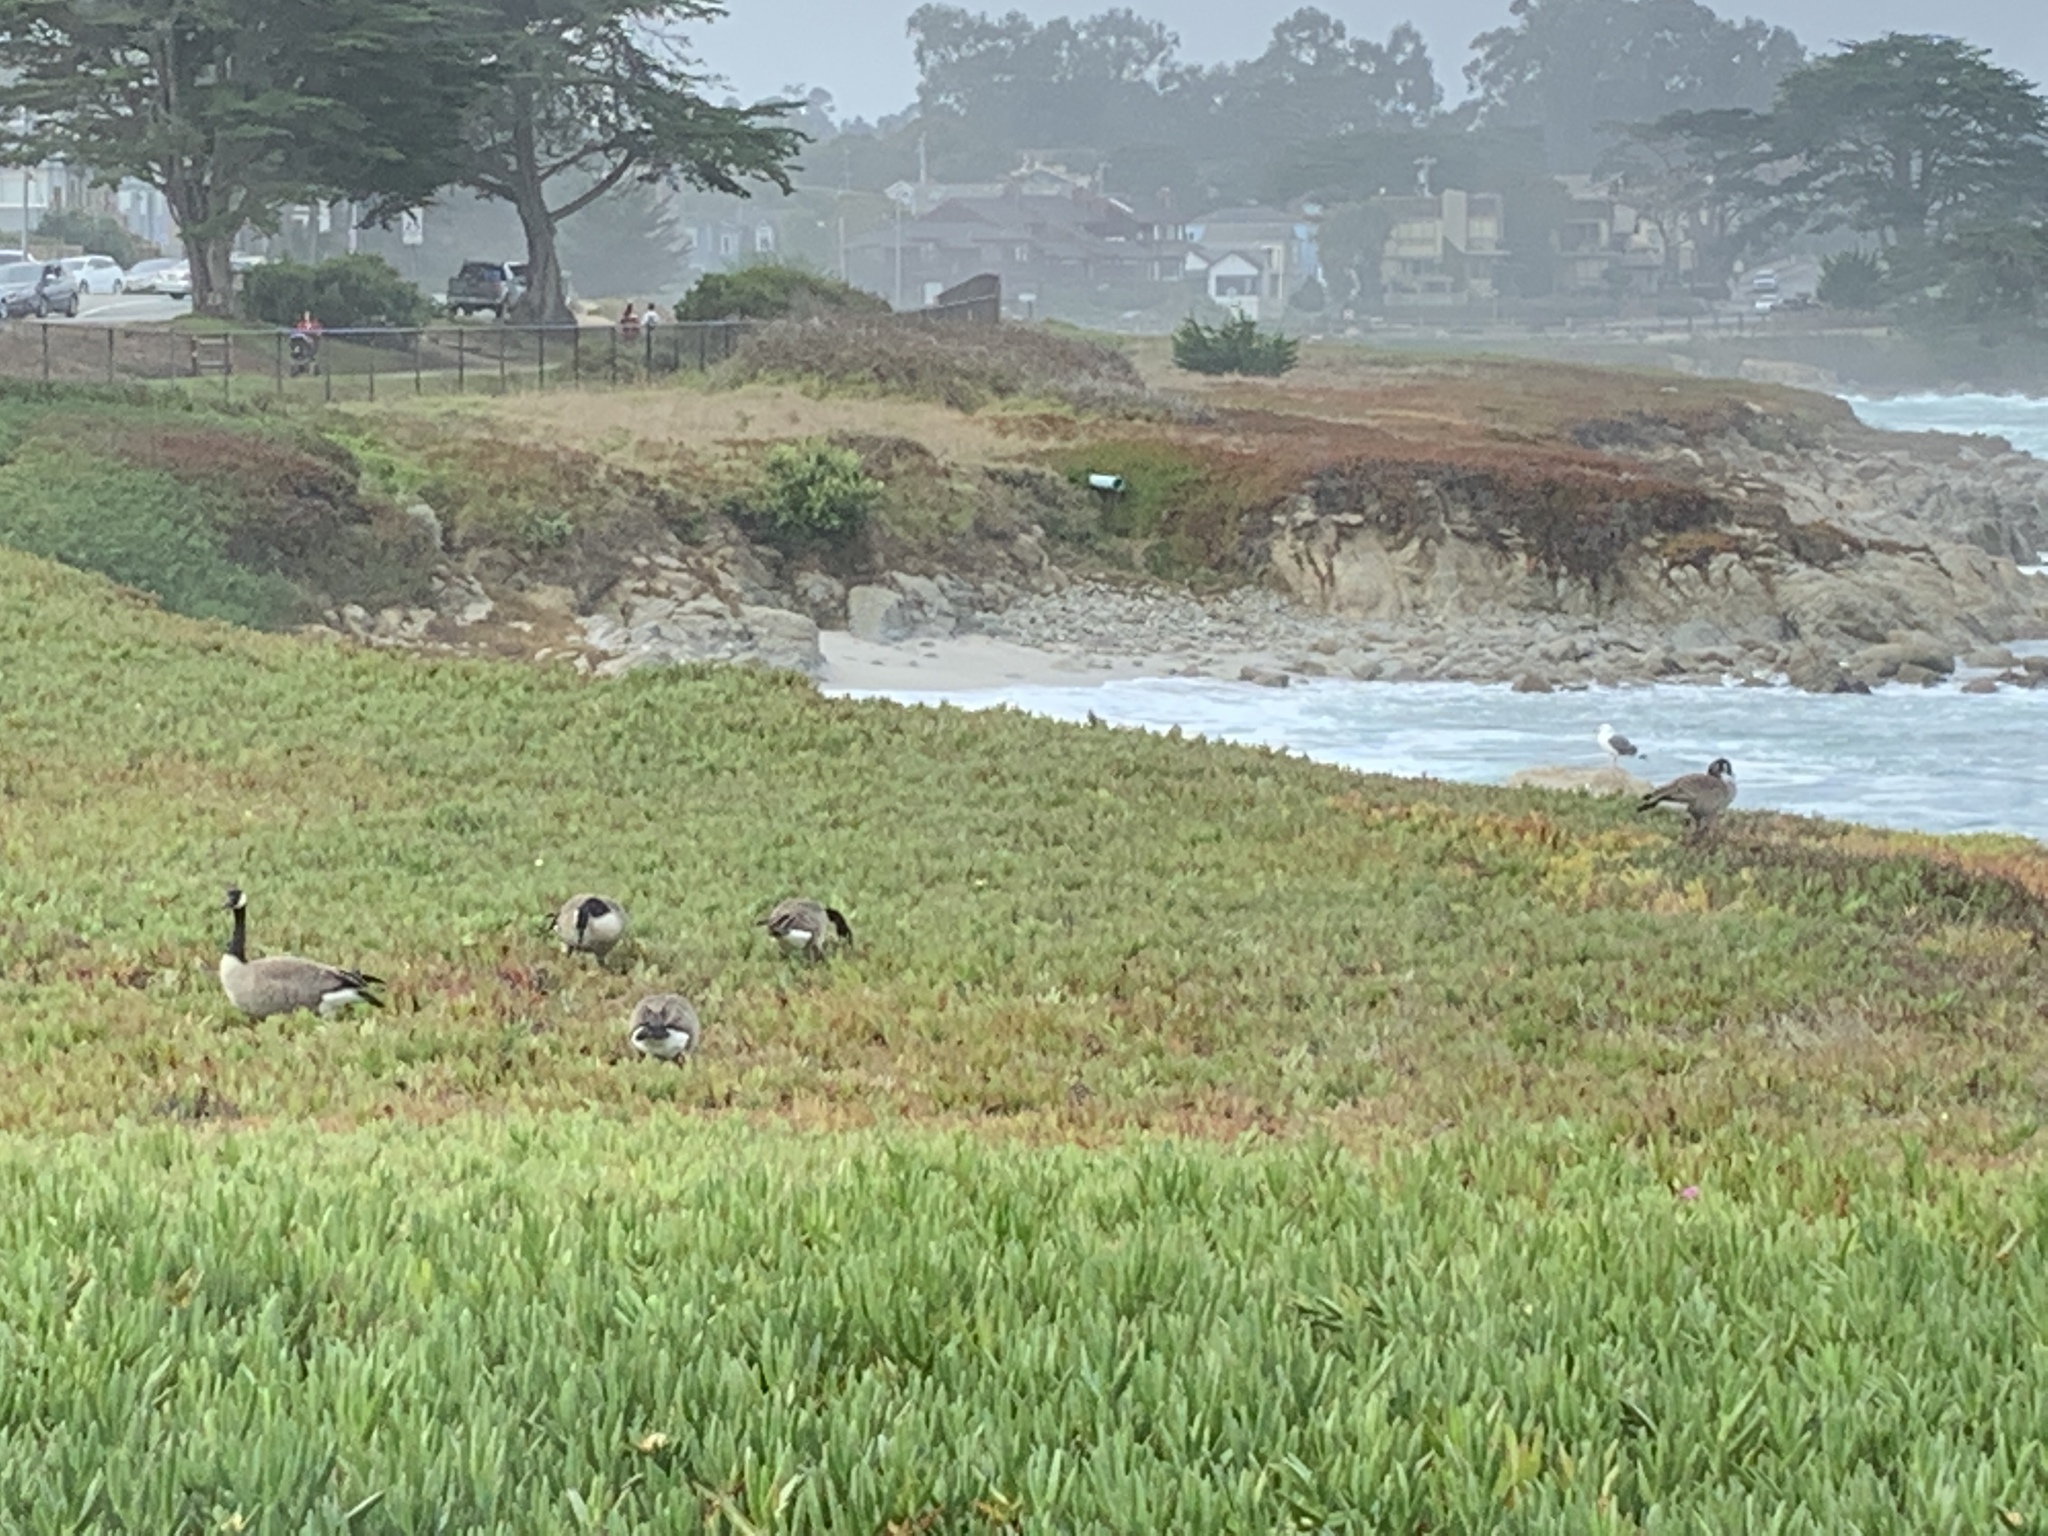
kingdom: Animalia
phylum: Chordata
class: Aves
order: Anseriformes
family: Anatidae
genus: Branta
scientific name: Branta canadensis
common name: Canada goose
